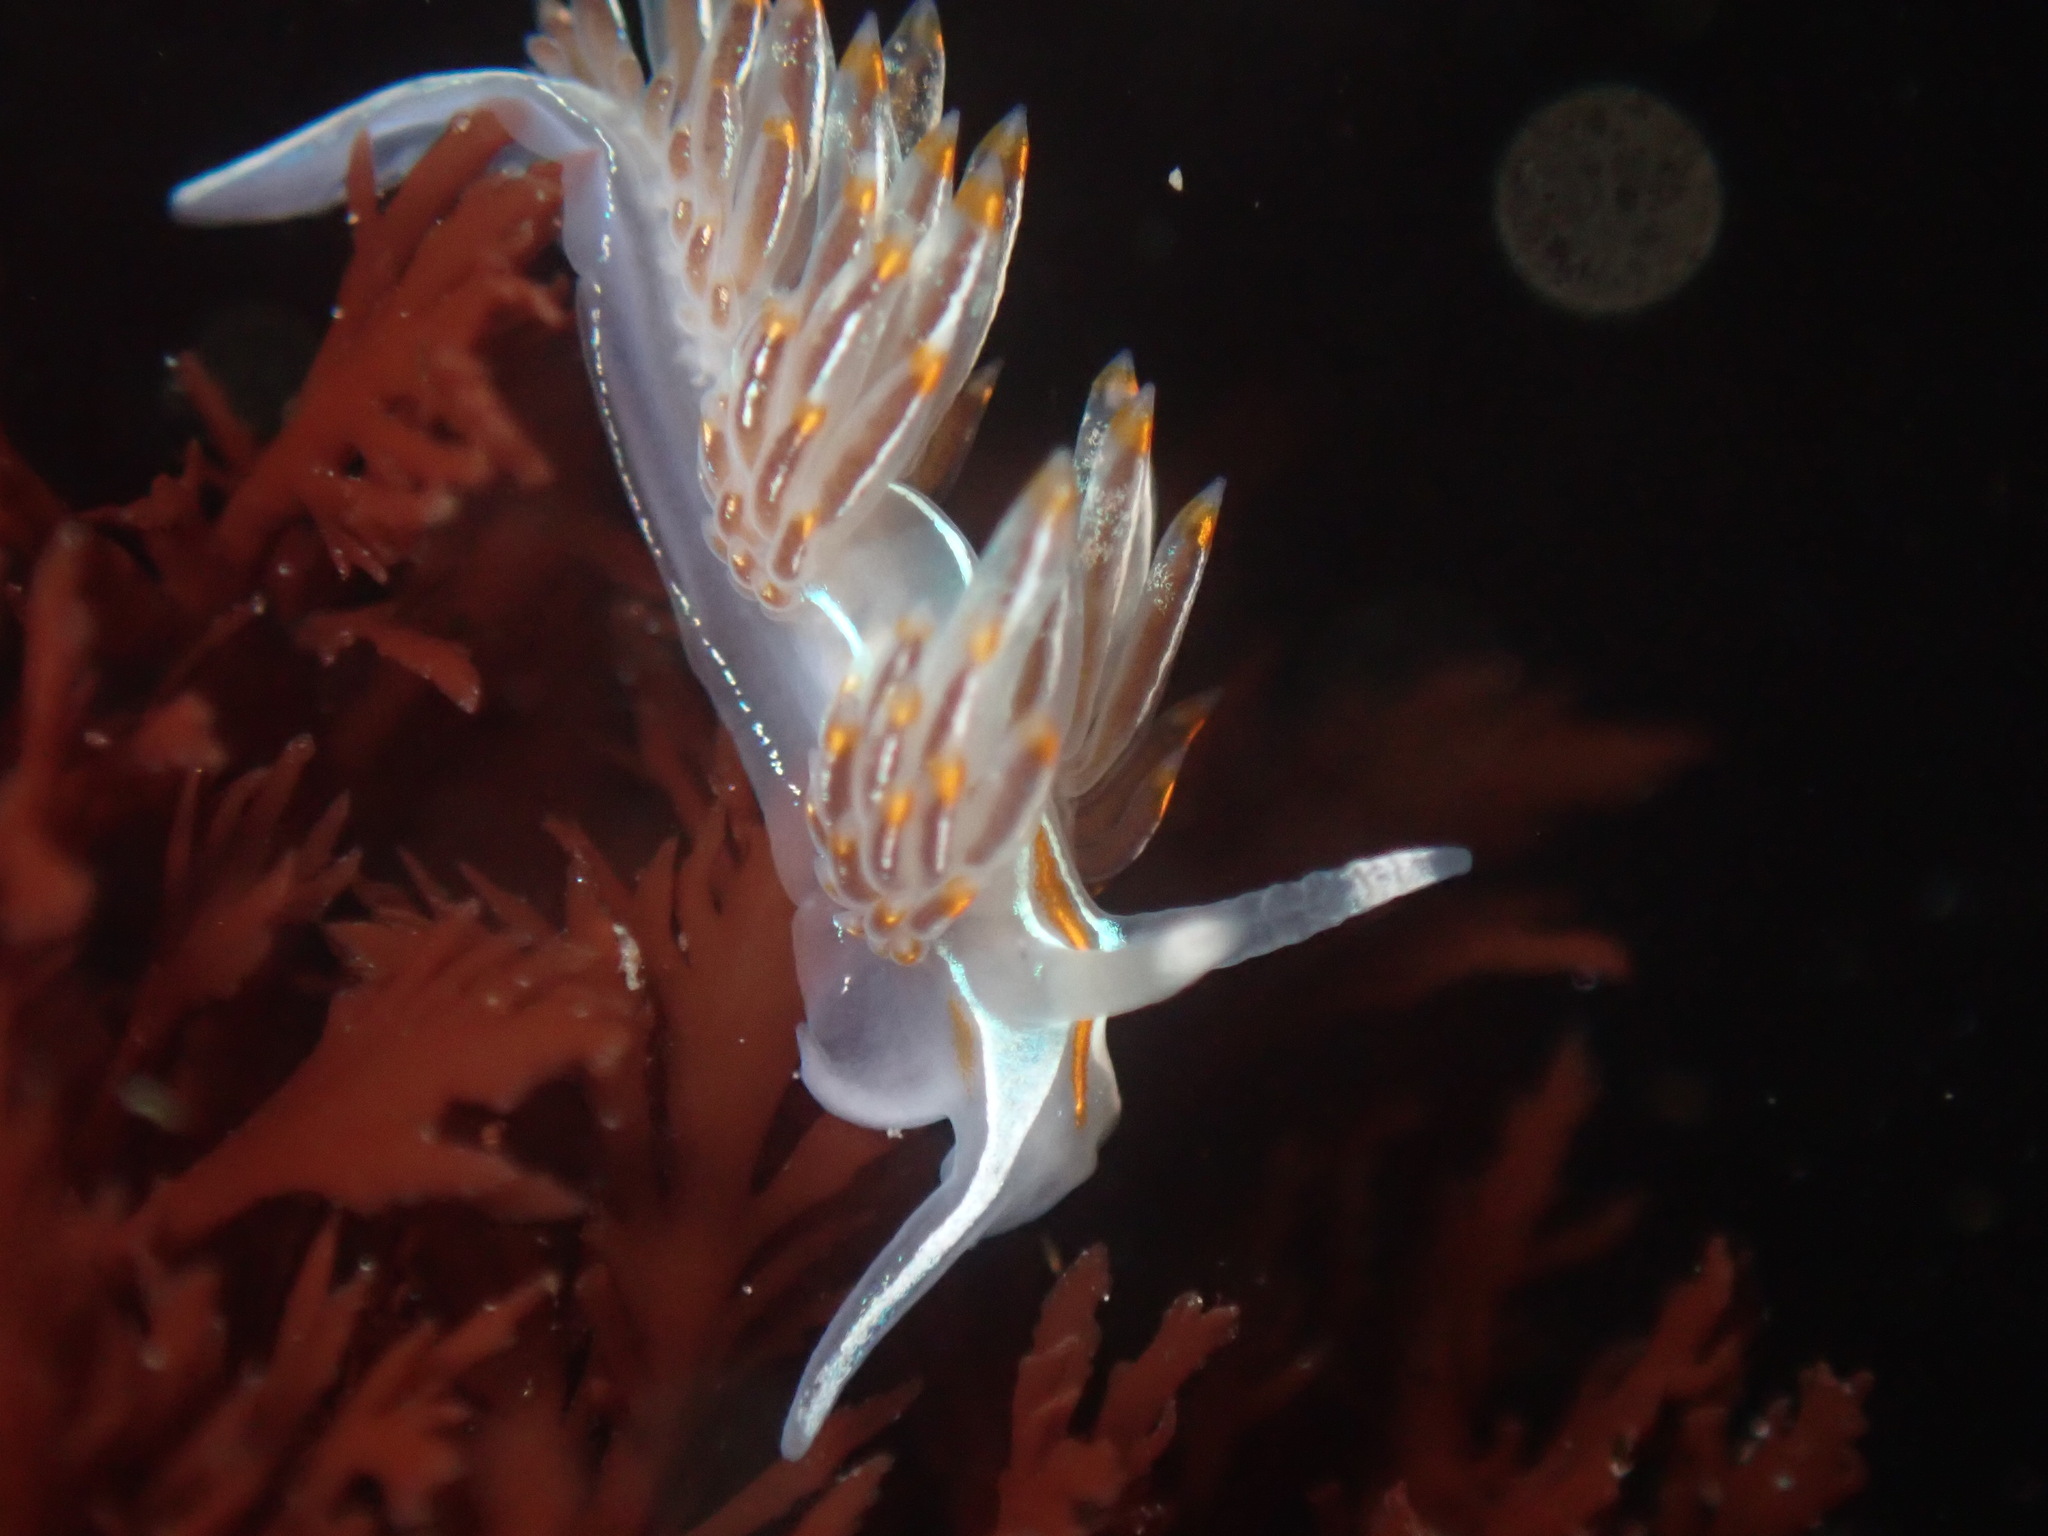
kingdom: Animalia
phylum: Mollusca
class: Gastropoda
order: Nudibranchia
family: Myrrhinidae
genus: Hermissenda
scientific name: Hermissenda crassicornis
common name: Hermissenda
